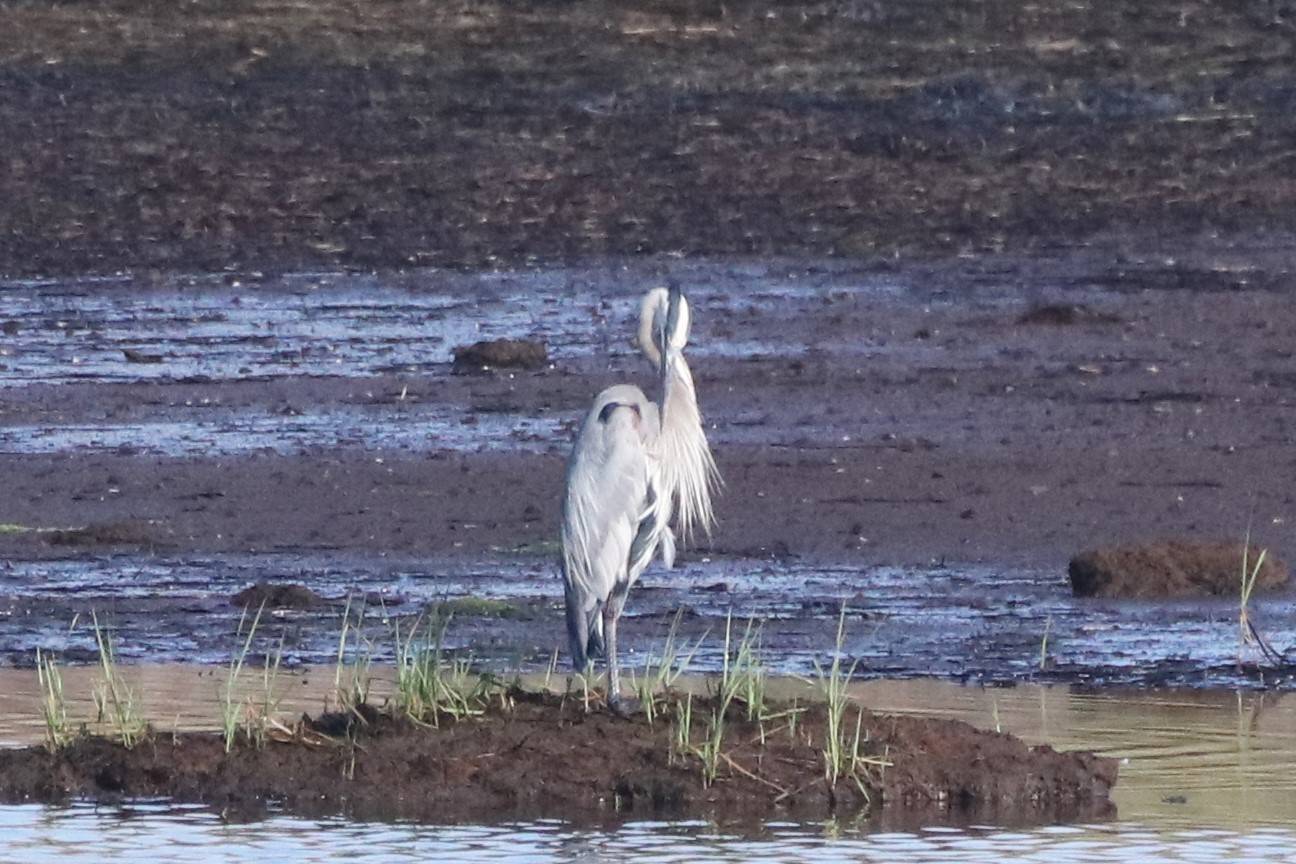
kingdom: Animalia
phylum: Chordata
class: Aves
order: Pelecaniformes
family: Ardeidae
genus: Ardea
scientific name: Ardea herodias
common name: Great blue heron
